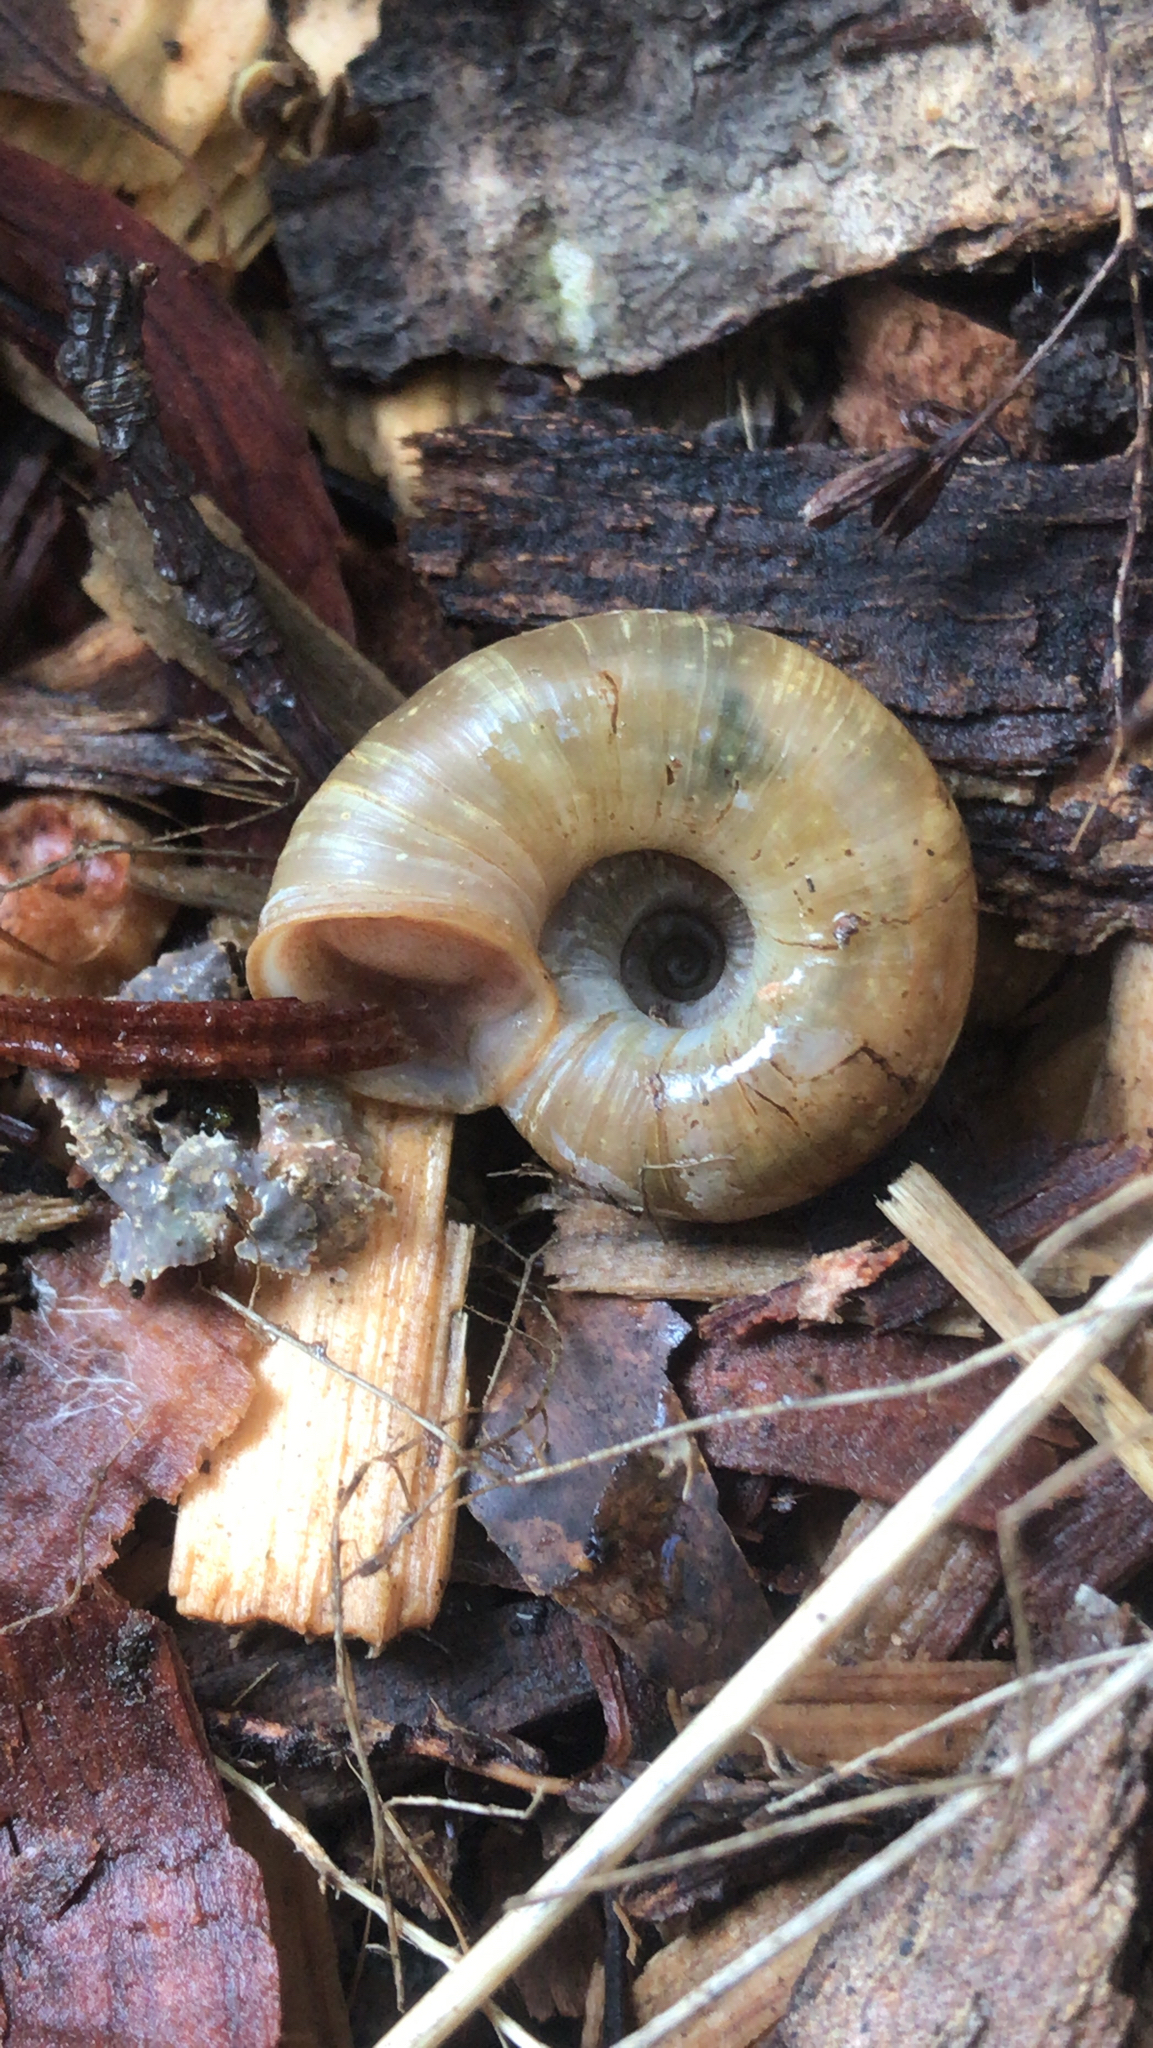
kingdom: Animalia
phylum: Mollusca
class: Gastropoda
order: Stylommatophora
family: Haplotrematidae
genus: Haplotrema
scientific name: Haplotrema concavum
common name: Gray-foot lancetooth
